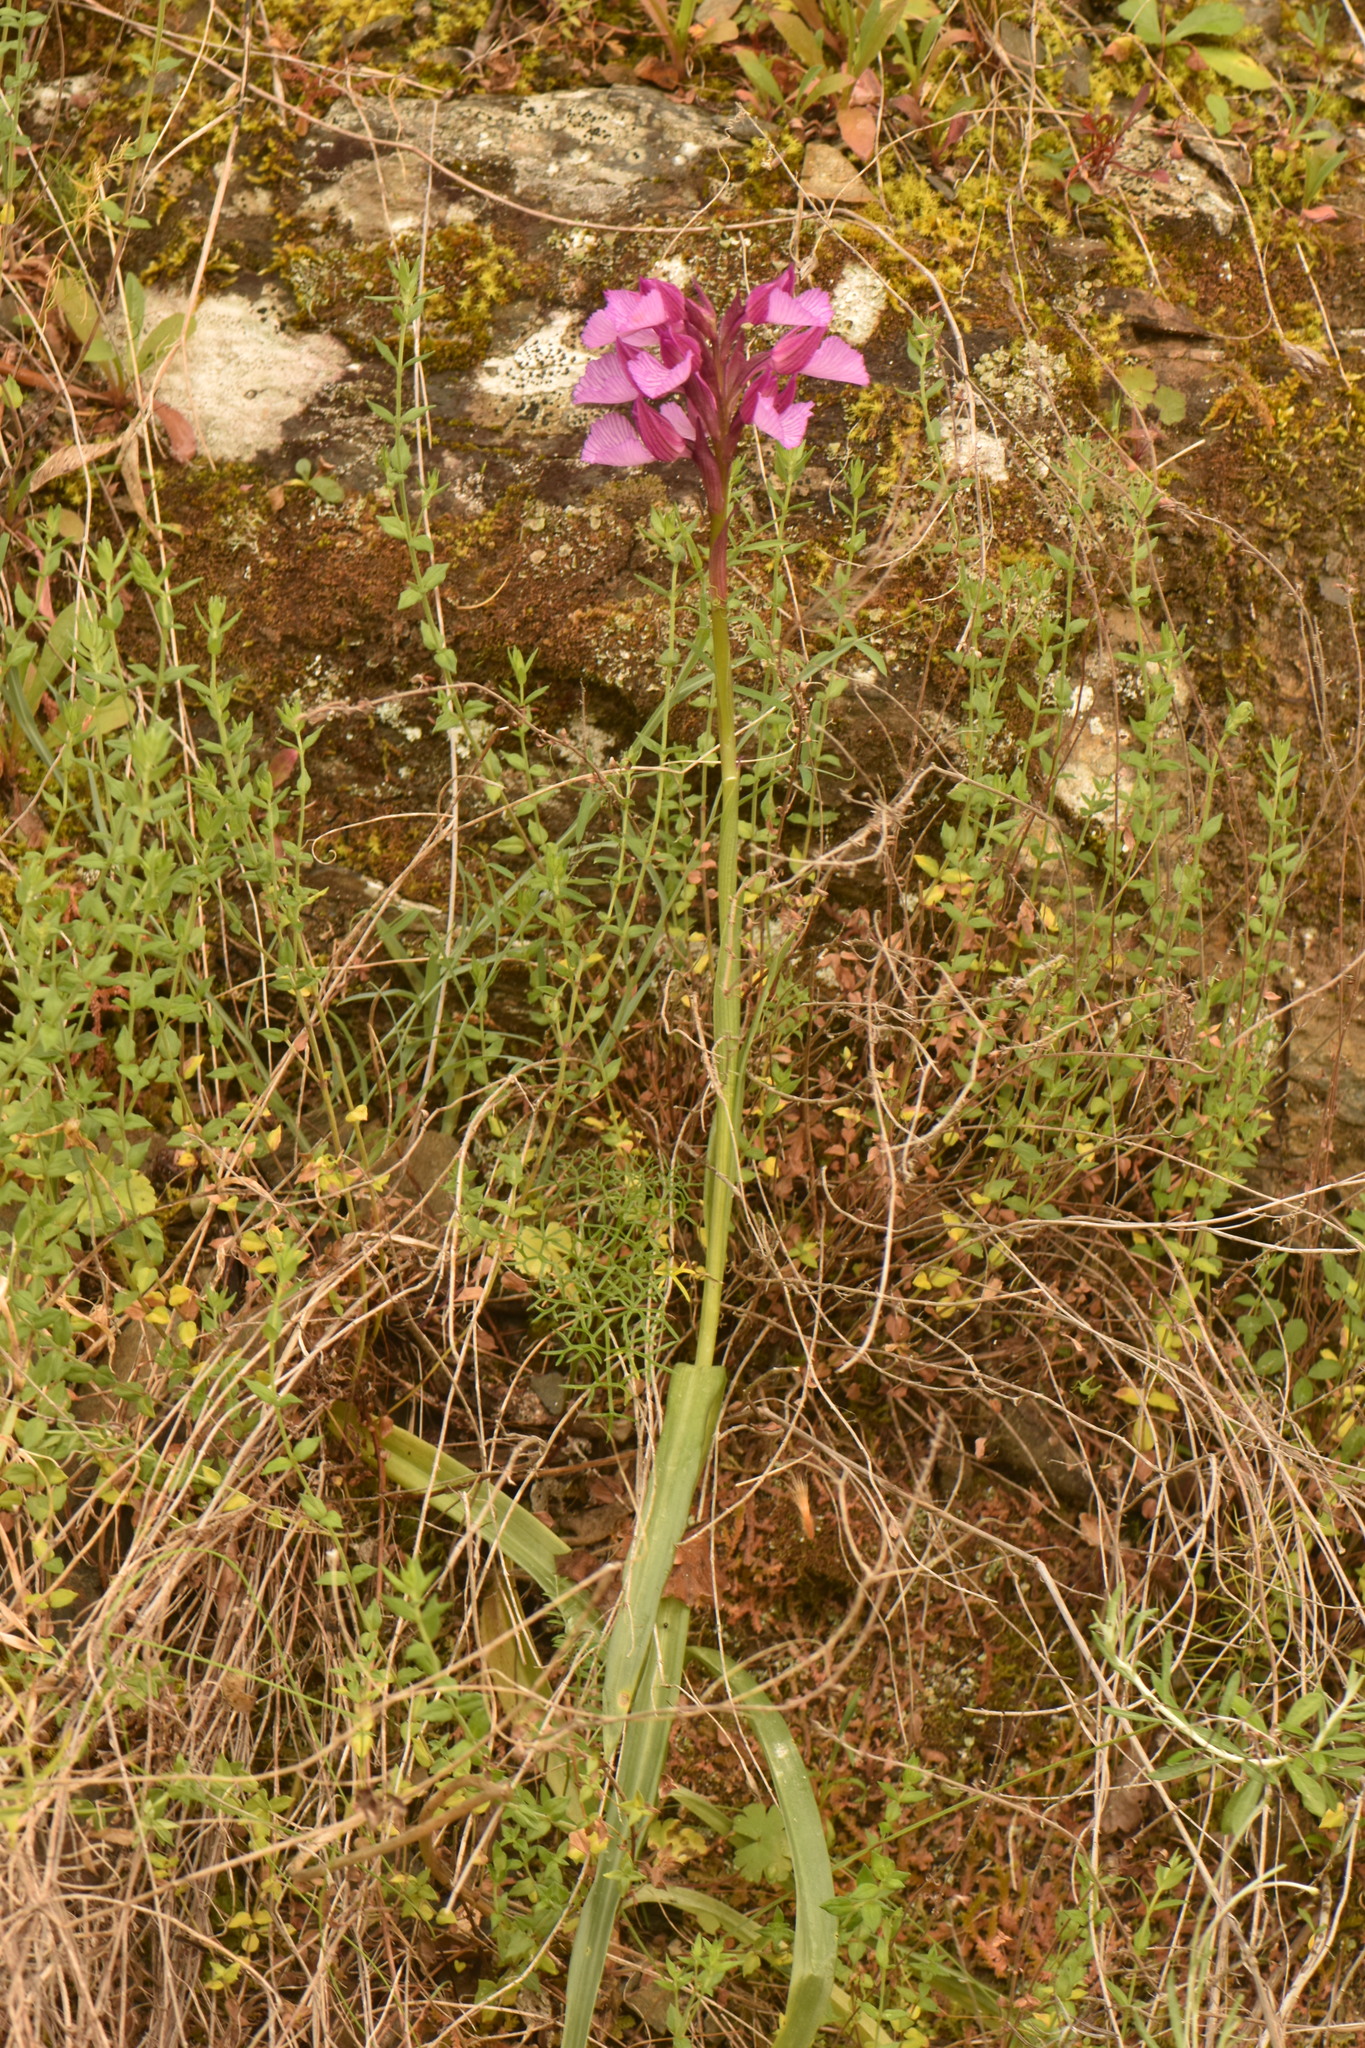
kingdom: Plantae
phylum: Tracheophyta
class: Liliopsida
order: Asparagales
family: Orchidaceae
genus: Anacamptis
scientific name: Anacamptis papilionacea
